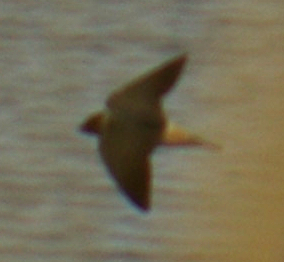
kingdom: Animalia
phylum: Chordata
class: Aves
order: Passeriformes
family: Hirundinidae
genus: Petrochelidon
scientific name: Petrochelidon pyrrhonota
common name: American cliff swallow
